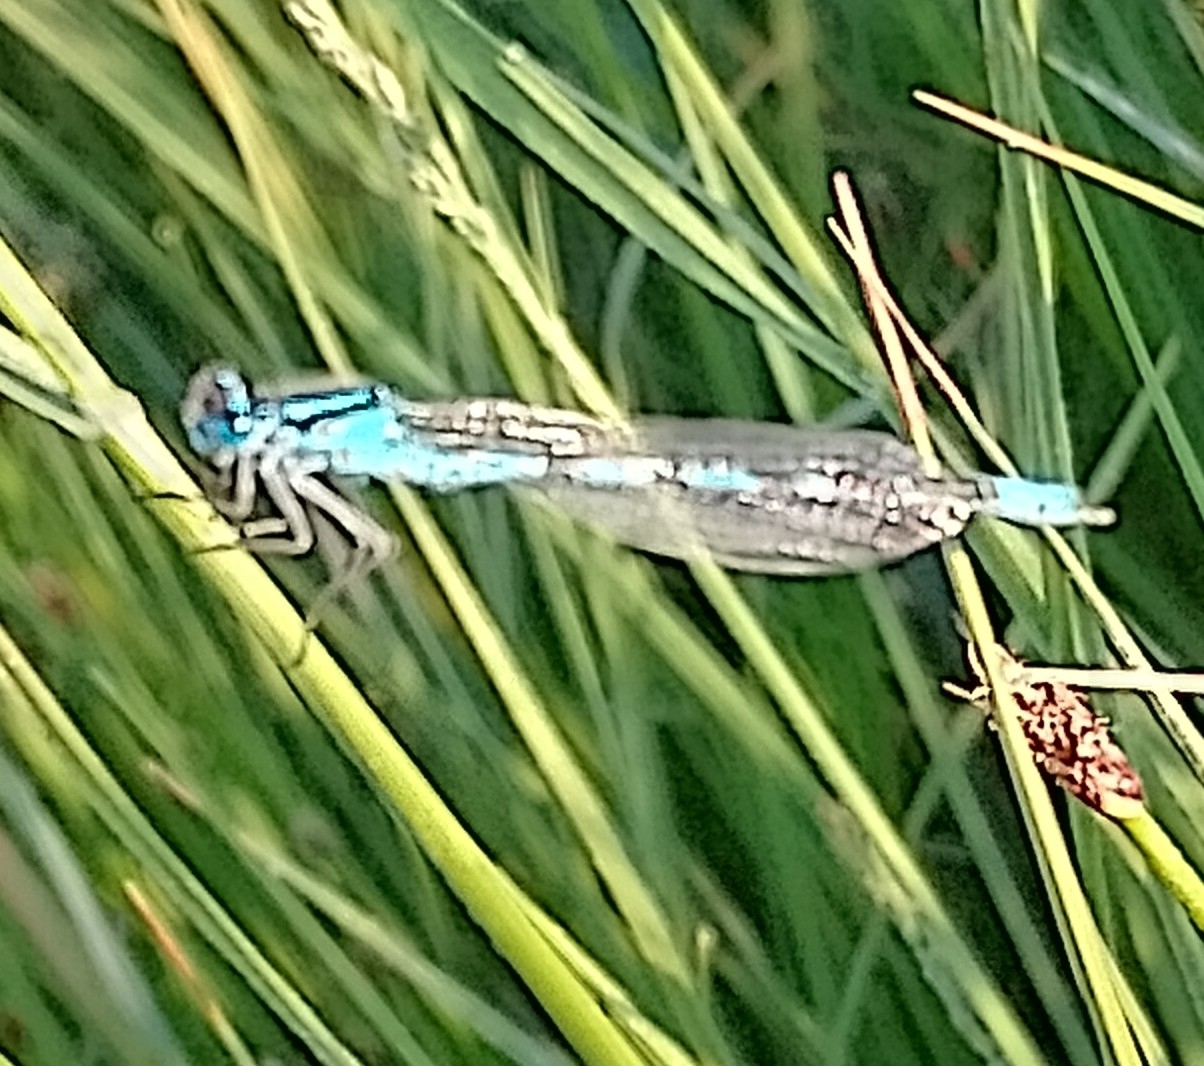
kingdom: Animalia
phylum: Arthropoda
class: Insecta
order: Odonata
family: Coenagrionidae
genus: Enallagma
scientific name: Enallagma cyathigerum
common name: Common blue damselfly
